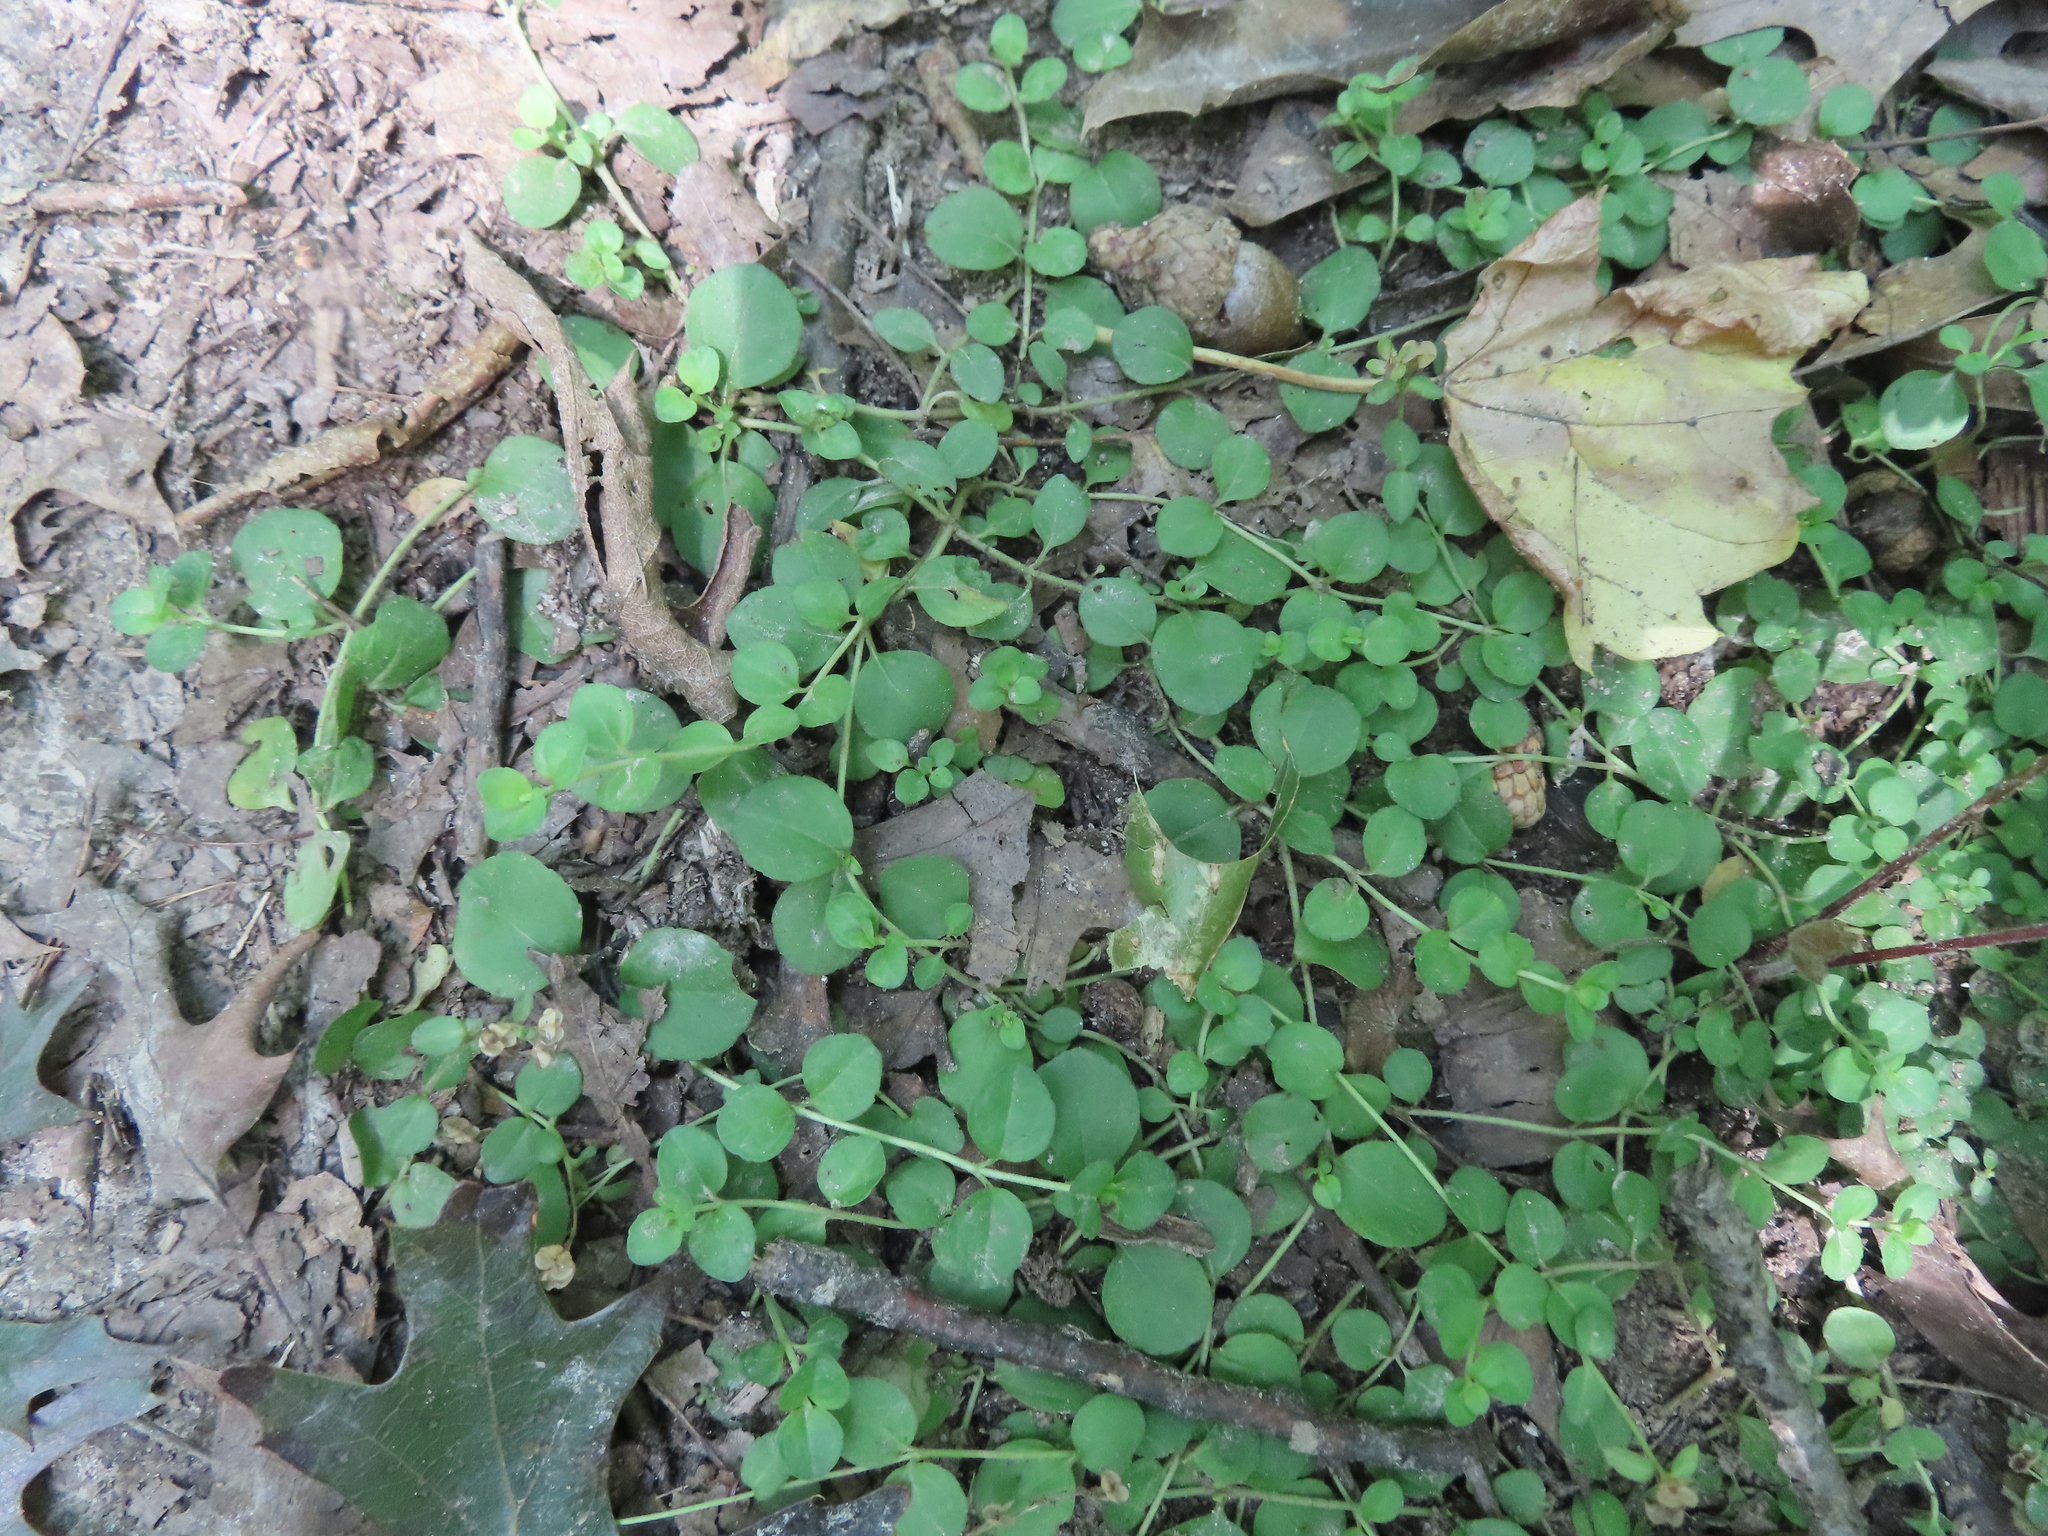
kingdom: Plantae
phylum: Tracheophyta
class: Magnoliopsida
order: Ericales
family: Primulaceae
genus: Lysimachia
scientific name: Lysimachia nummularia
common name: Moneywort
